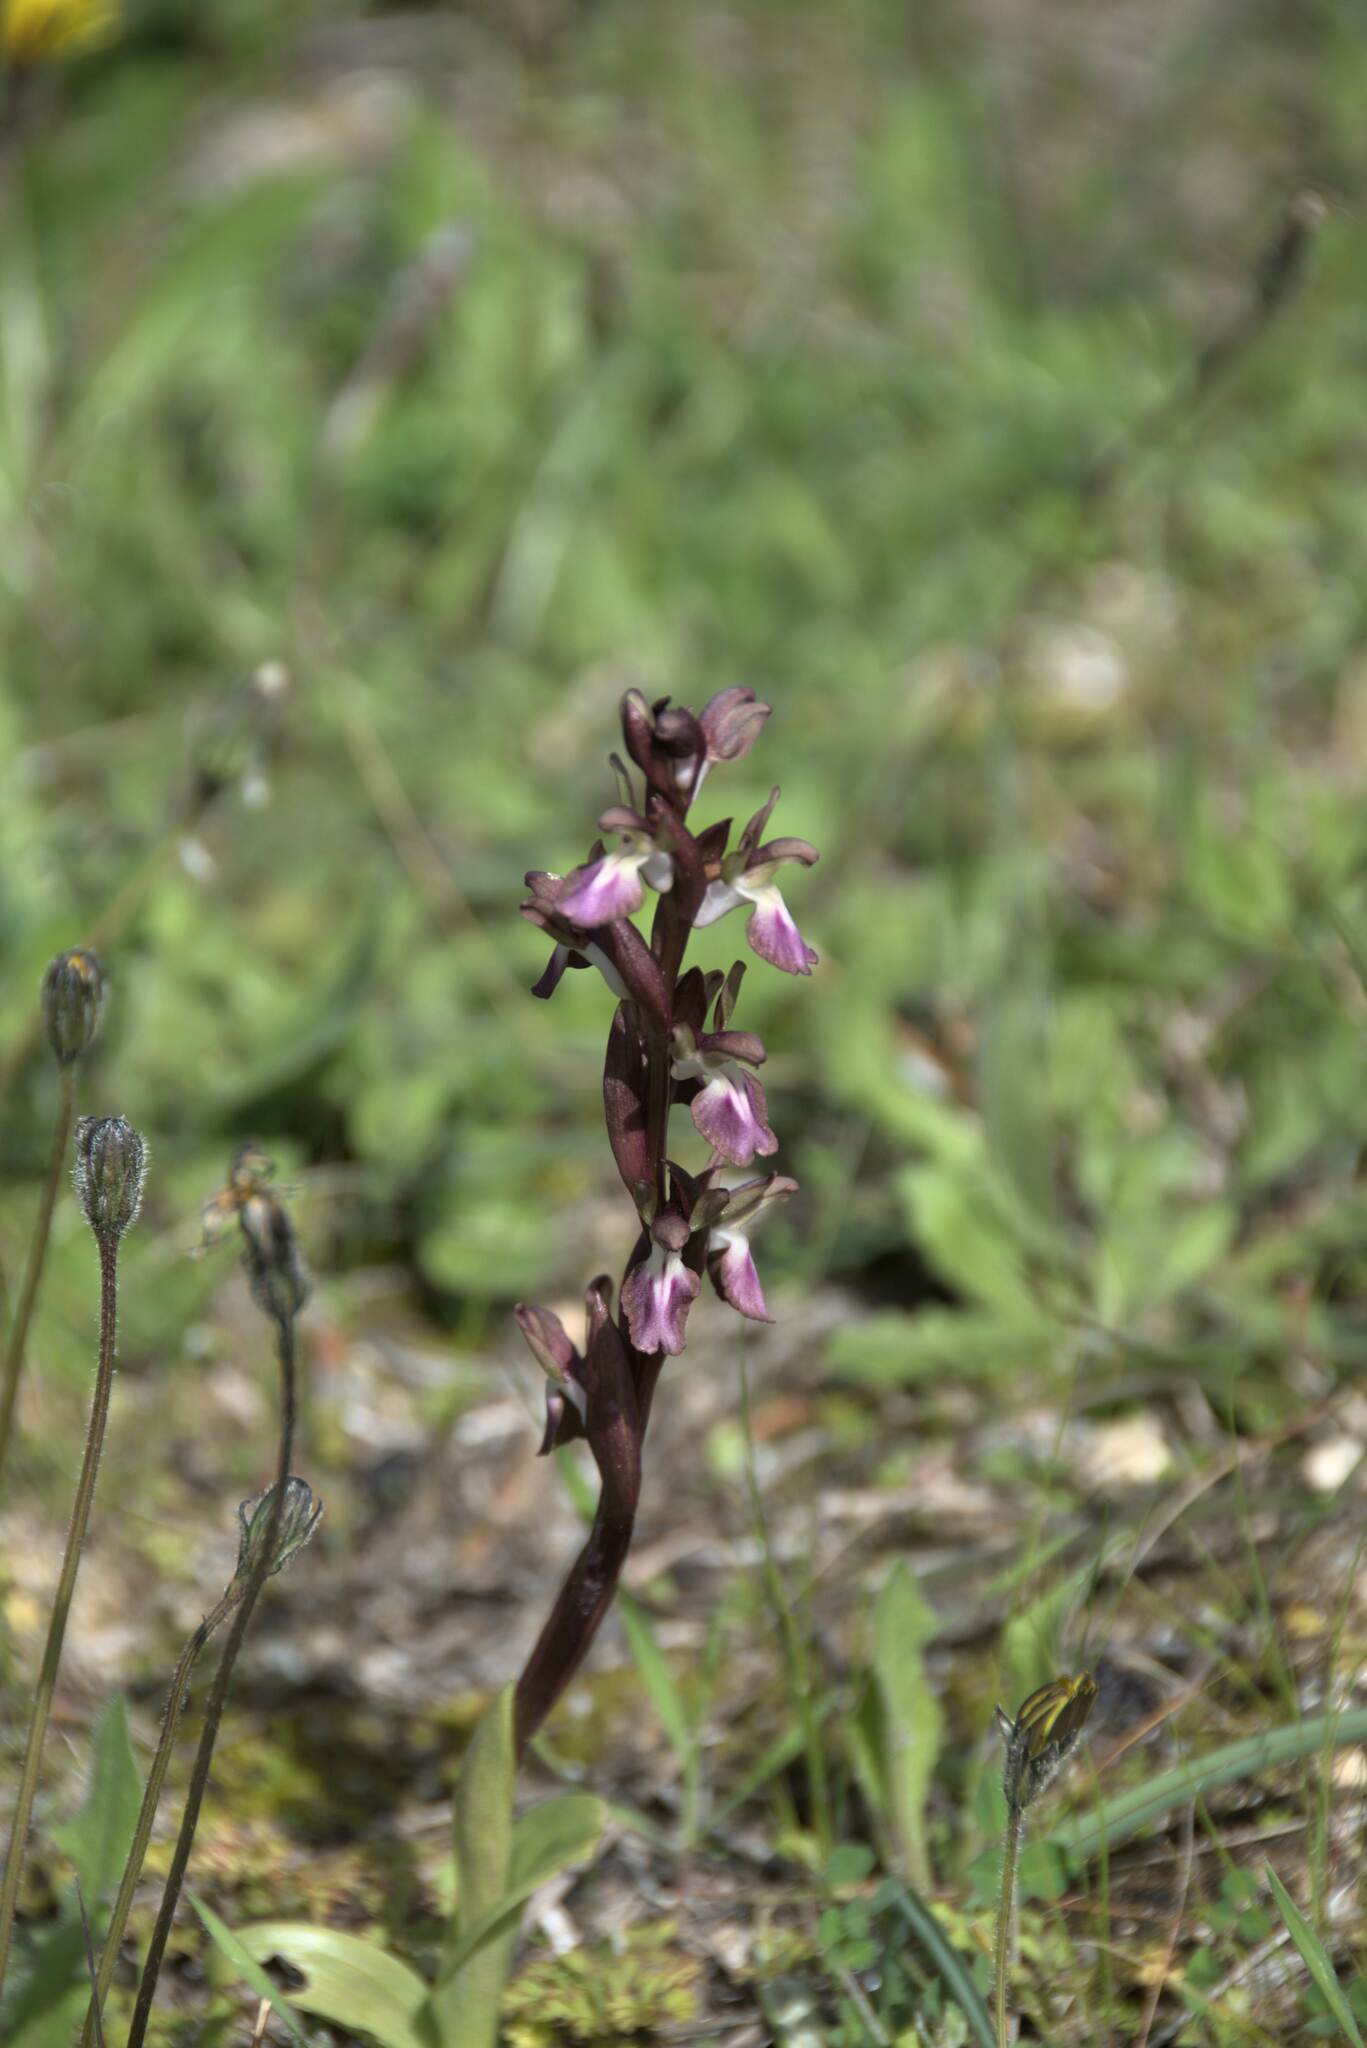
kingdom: Plantae
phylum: Tracheophyta
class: Liliopsida
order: Asparagales
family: Orchidaceae
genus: Anacamptis
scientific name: Anacamptis collina
